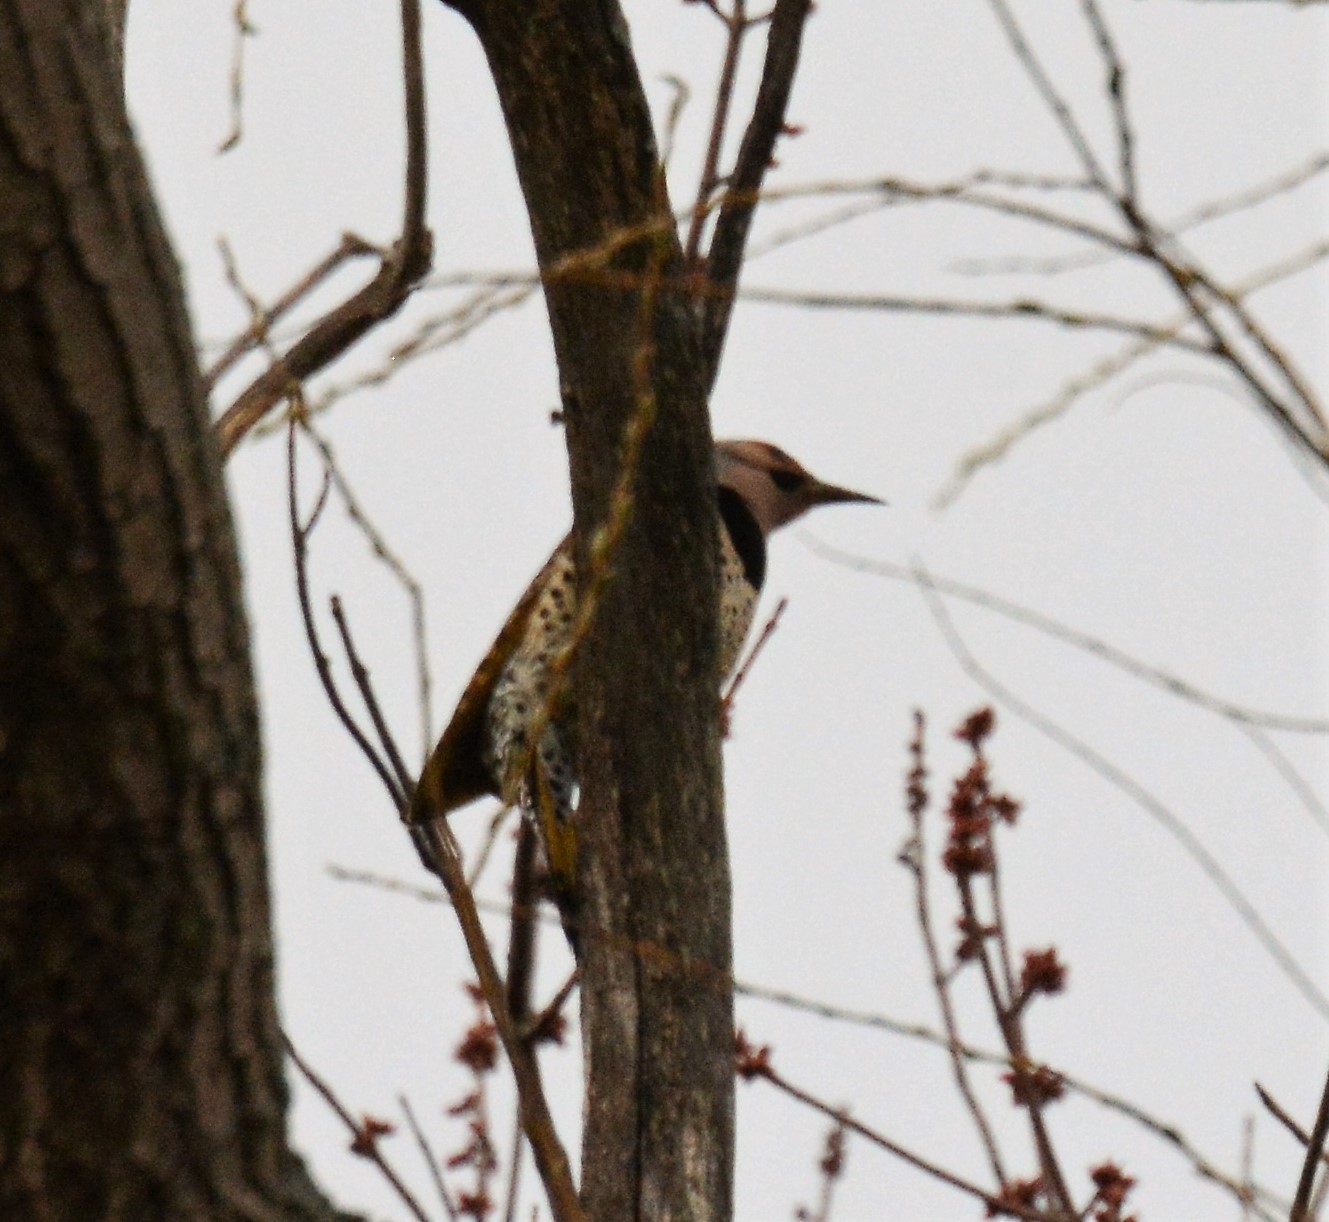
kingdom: Animalia
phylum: Chordata
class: Aves
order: Piciformes
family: Picidae
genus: Colaptes
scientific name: Colaptes auratus
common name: Northern flicker
